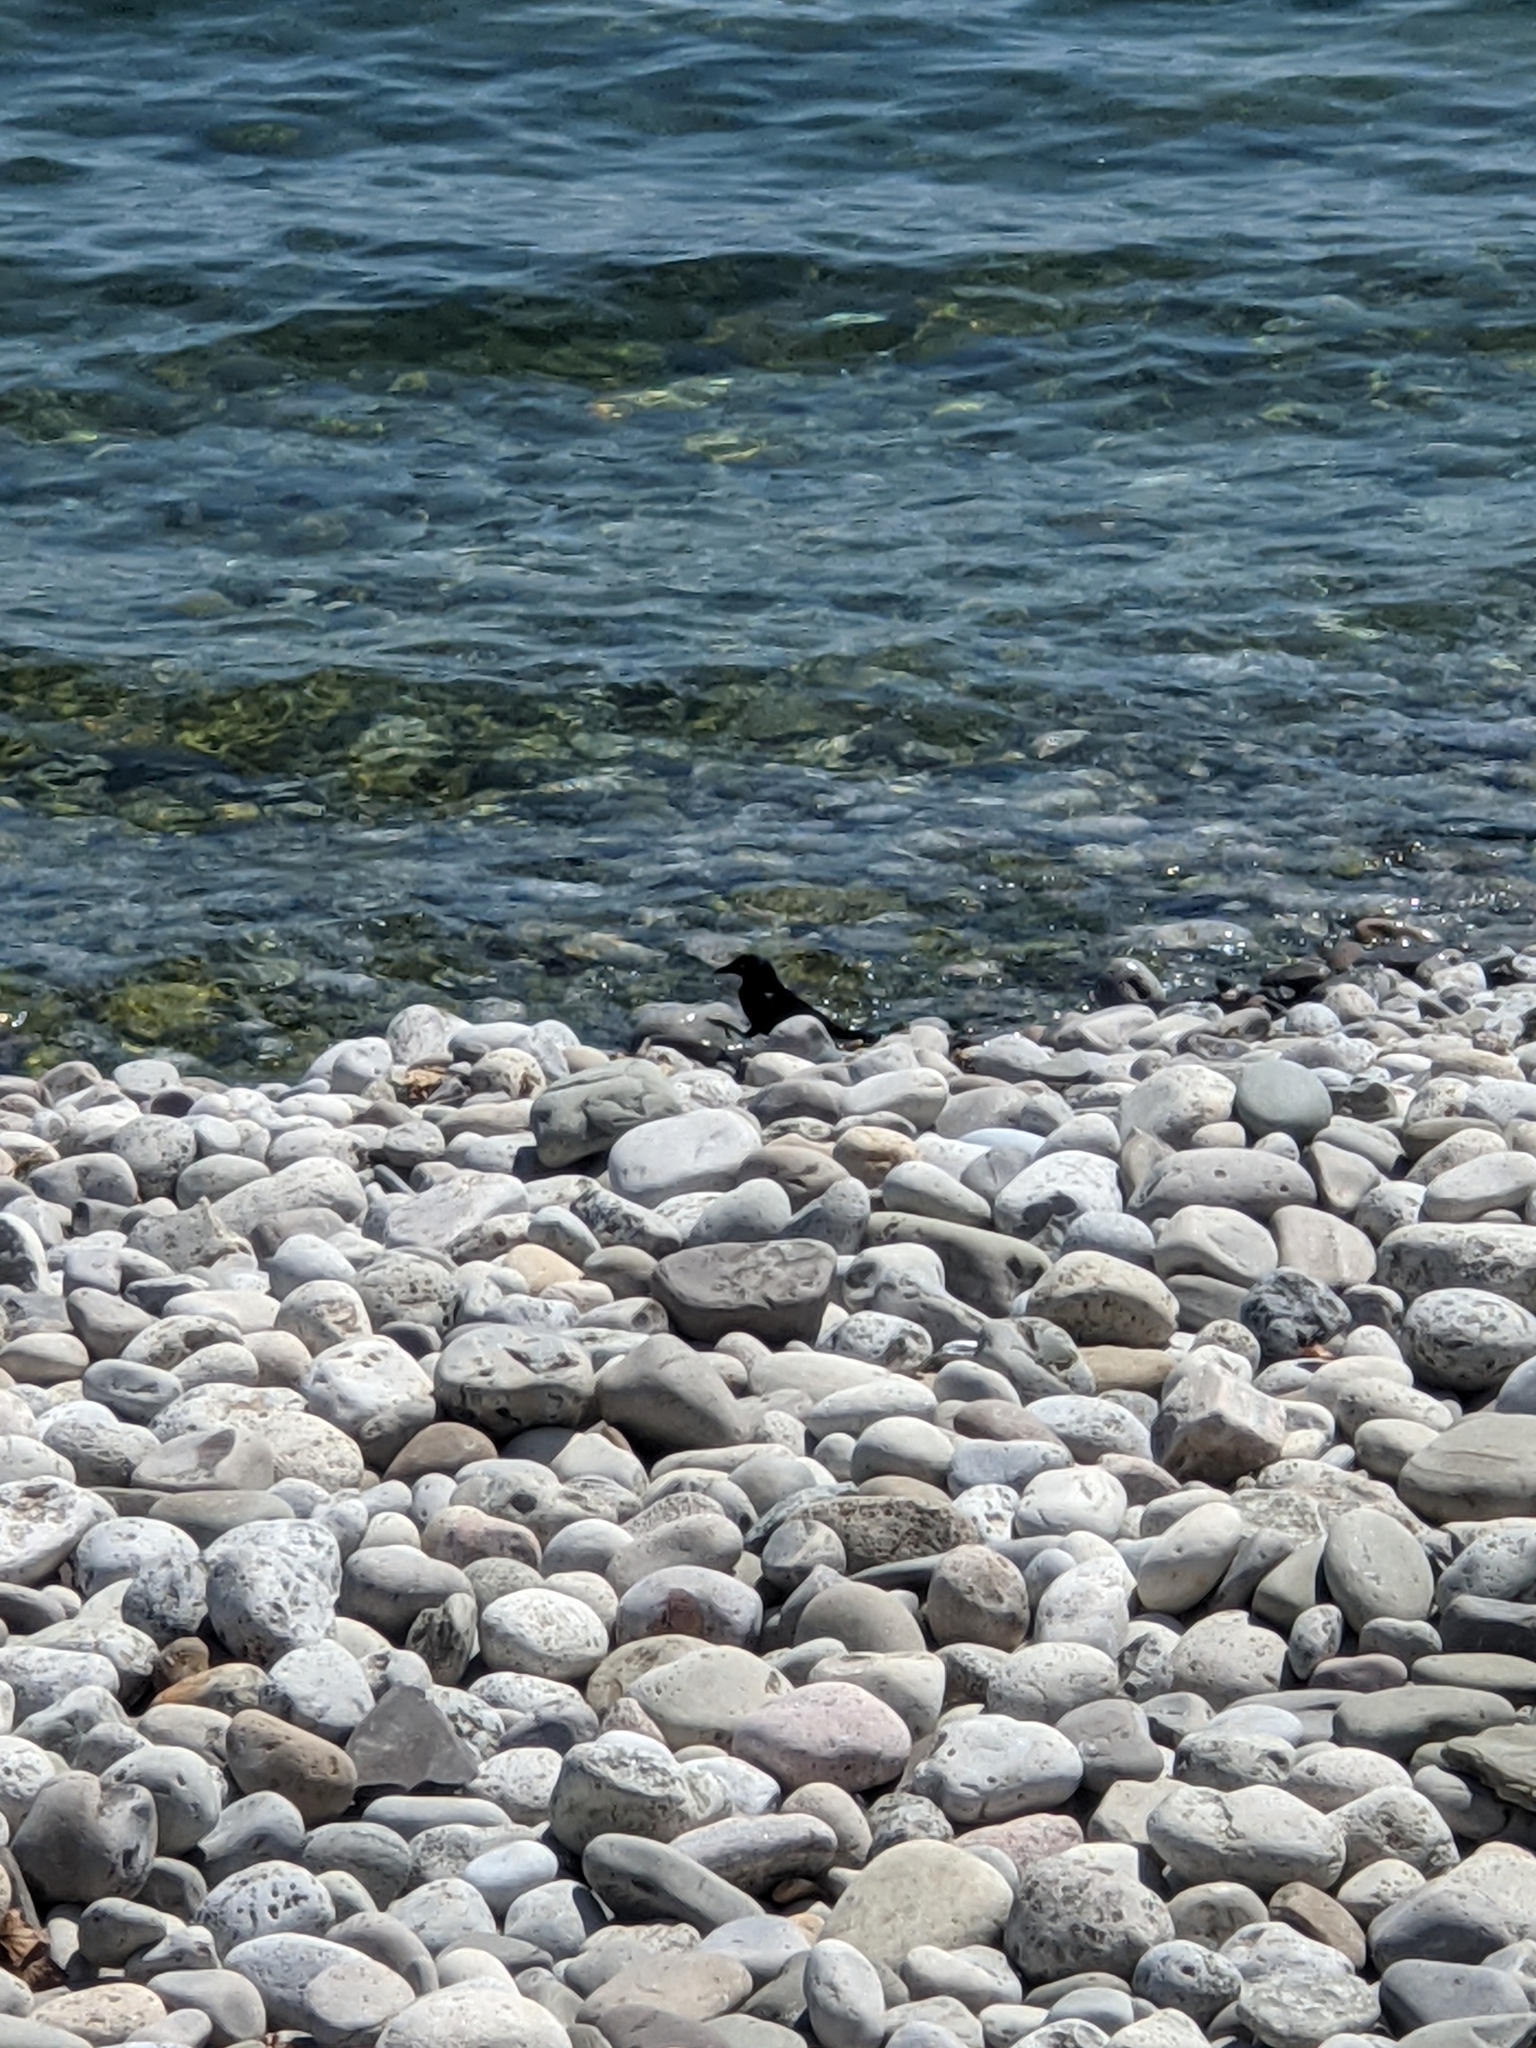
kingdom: Animalia
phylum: Chordata
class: Aves
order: Passeriformes
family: Icteridae
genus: Quiscalus
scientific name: Quiscalus quiscula
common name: Common grackle
